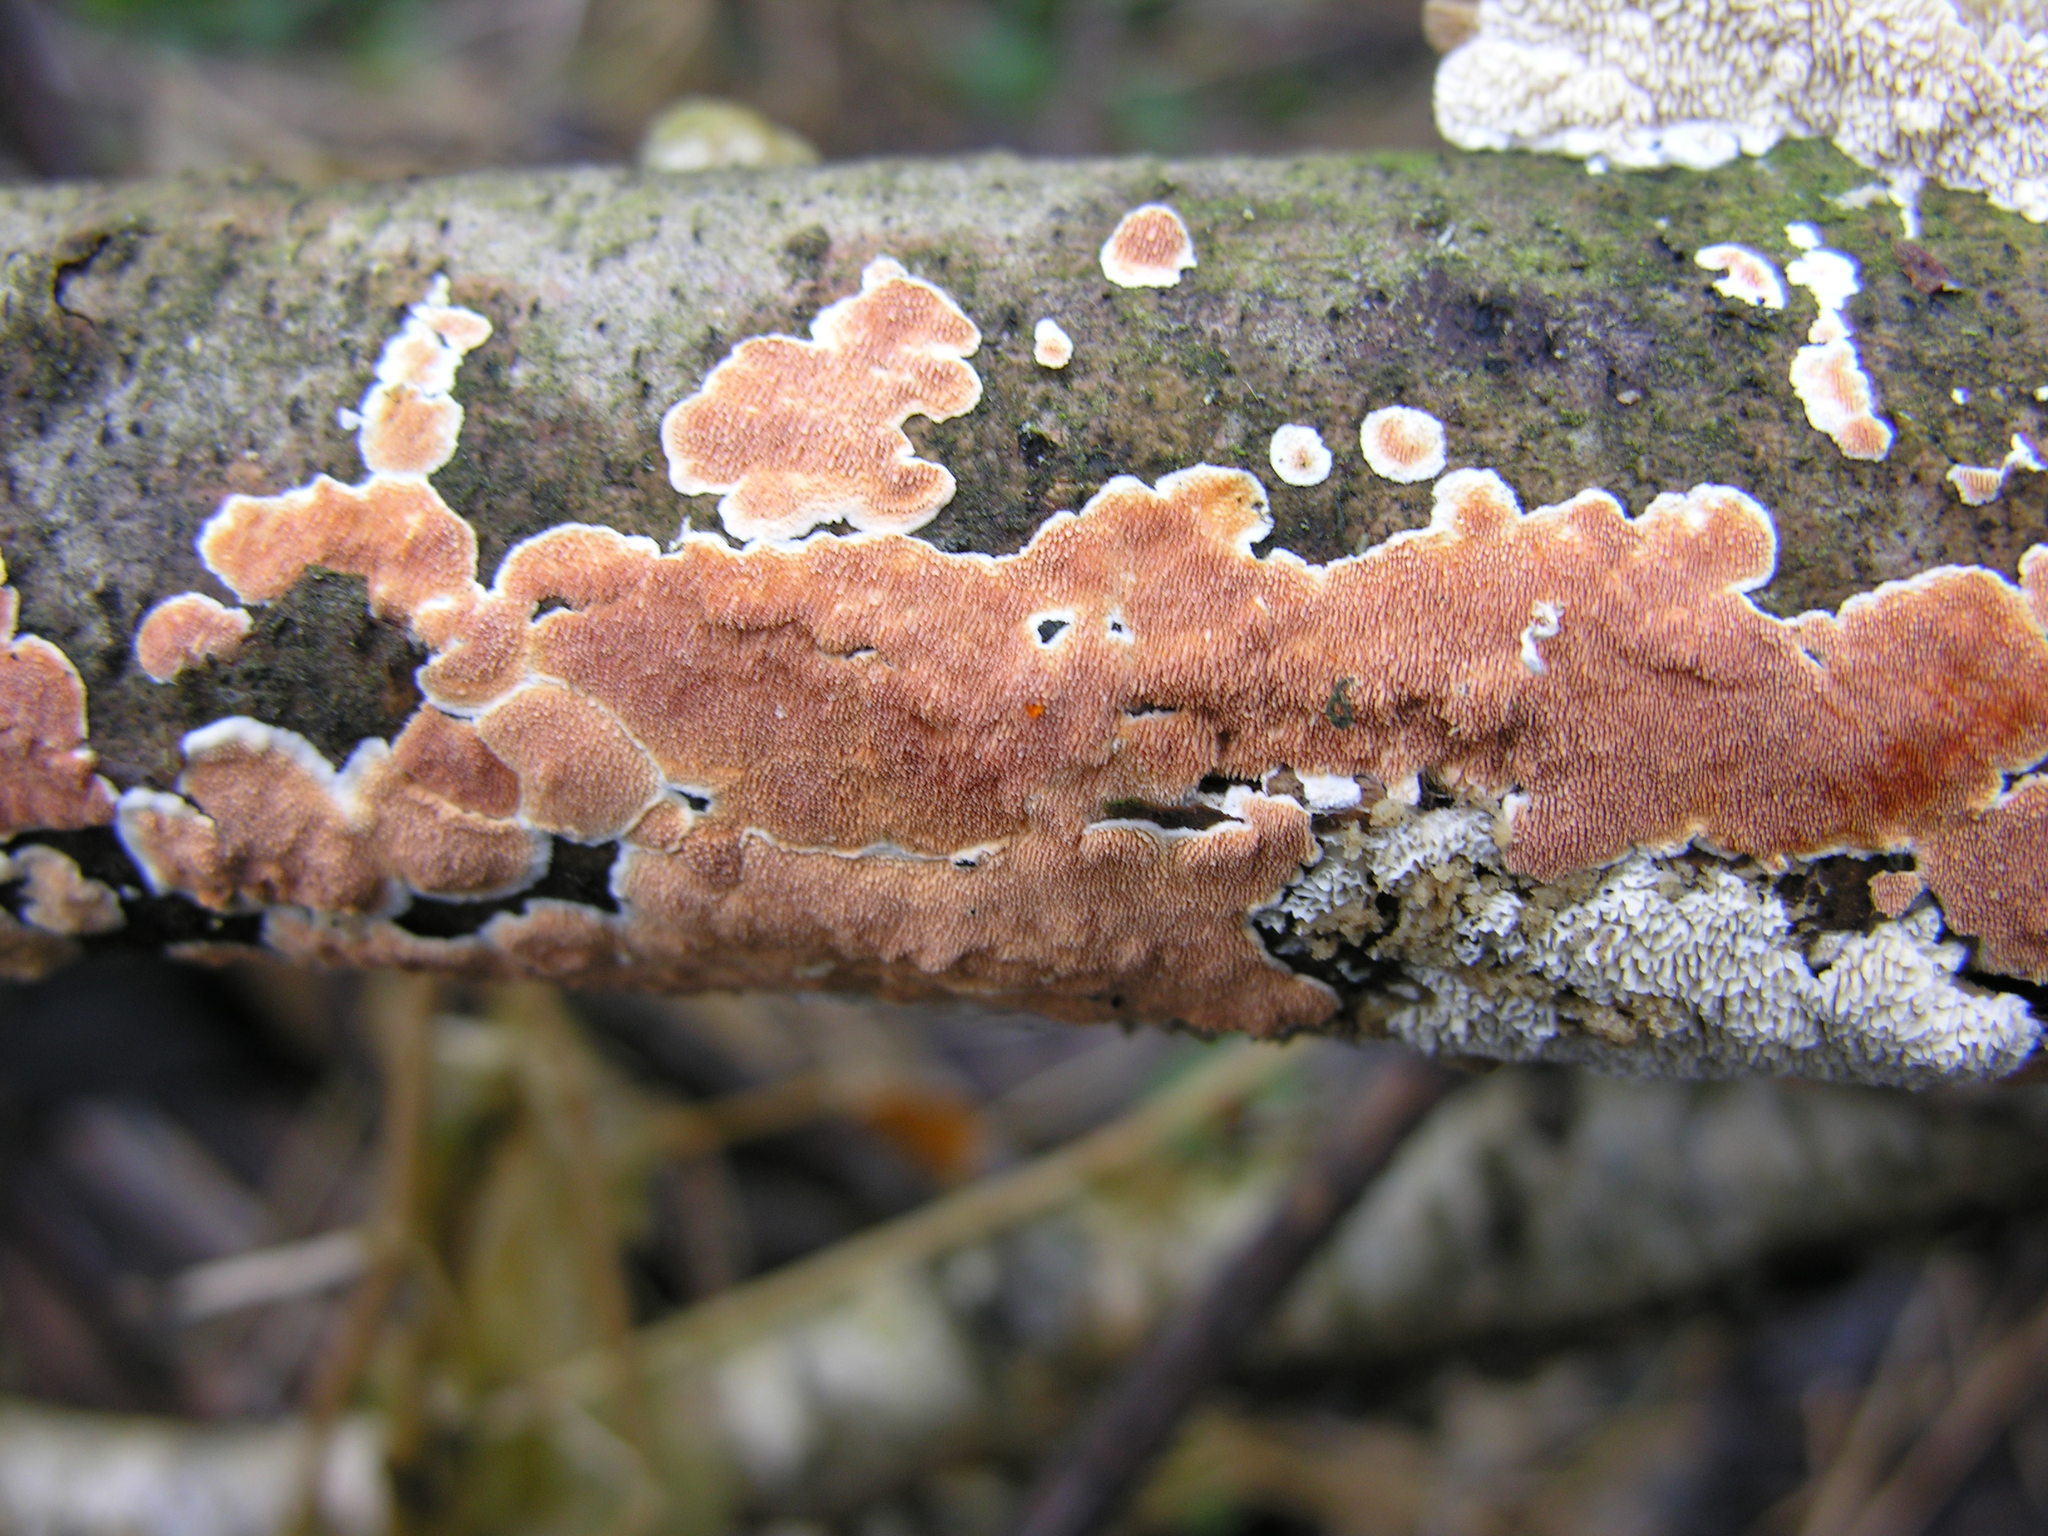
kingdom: Fungi
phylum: Basidiomycota
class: Agaricomycetes
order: Polyporales
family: Steccherinaceae
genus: Steccherinum
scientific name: Steccherinum ochraceum
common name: Ochre spreading tooth
